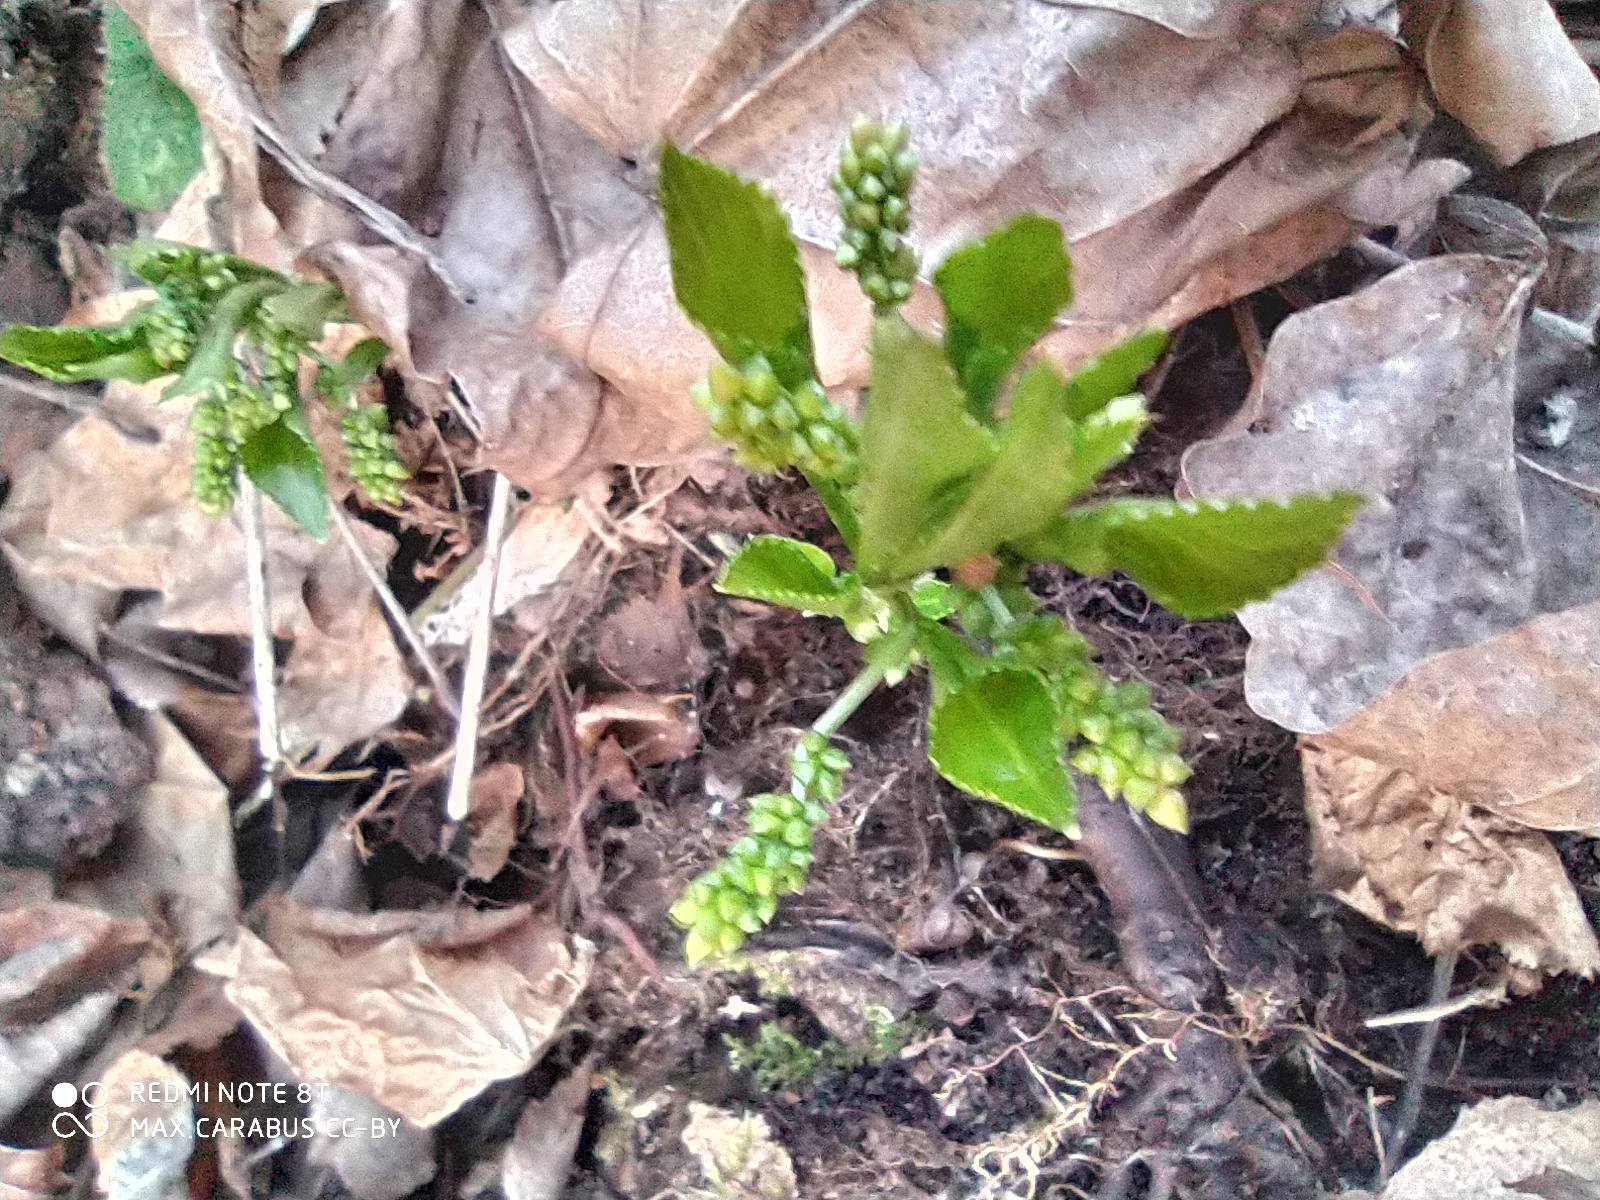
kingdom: Plantae
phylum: Tracheophyta
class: Magnoliopsida
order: Malpighiales
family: Euphorbiaceae
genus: Mercurialis
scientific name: Mercurialis perennis
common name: Dog mercury
